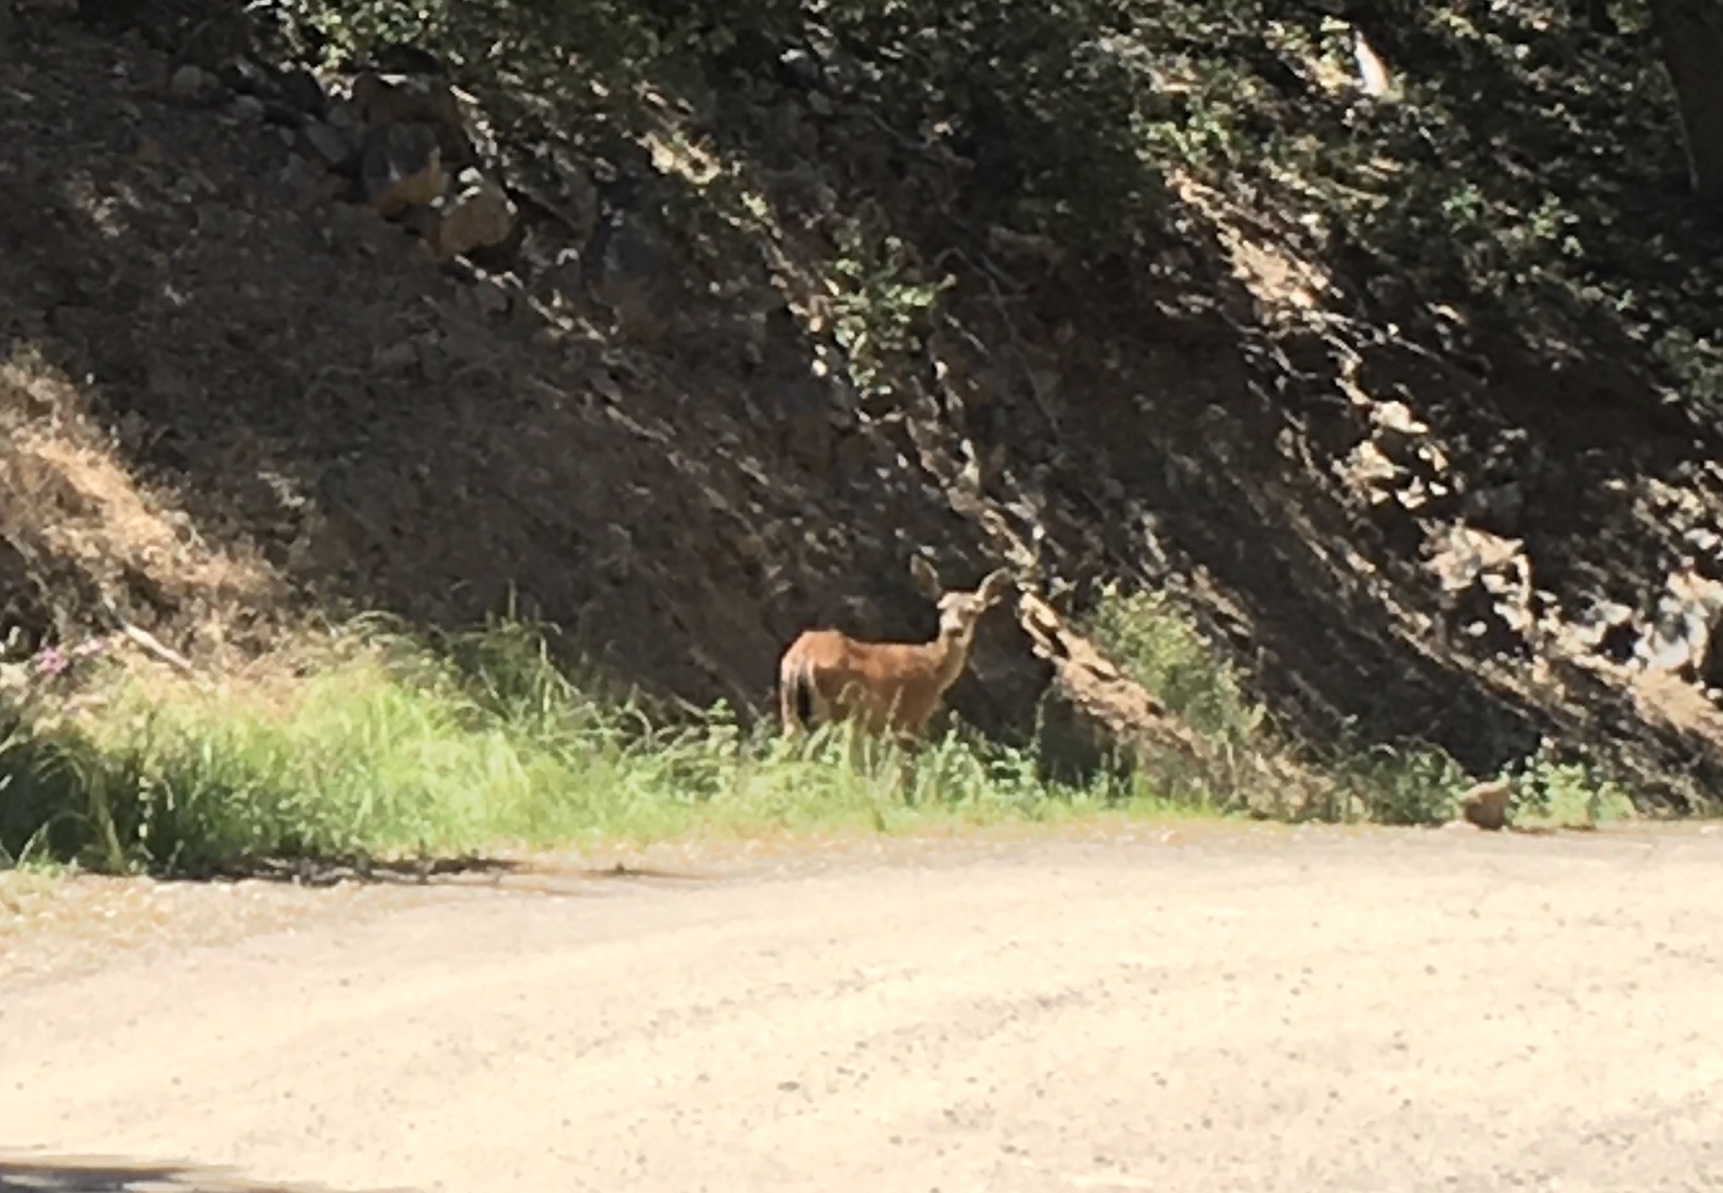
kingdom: Animalia
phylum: Chordata
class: Mammalia
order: Artiodactyla
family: Cervidae
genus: Odocoileus
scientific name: Odocoileus hemionus
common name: Mule deer
